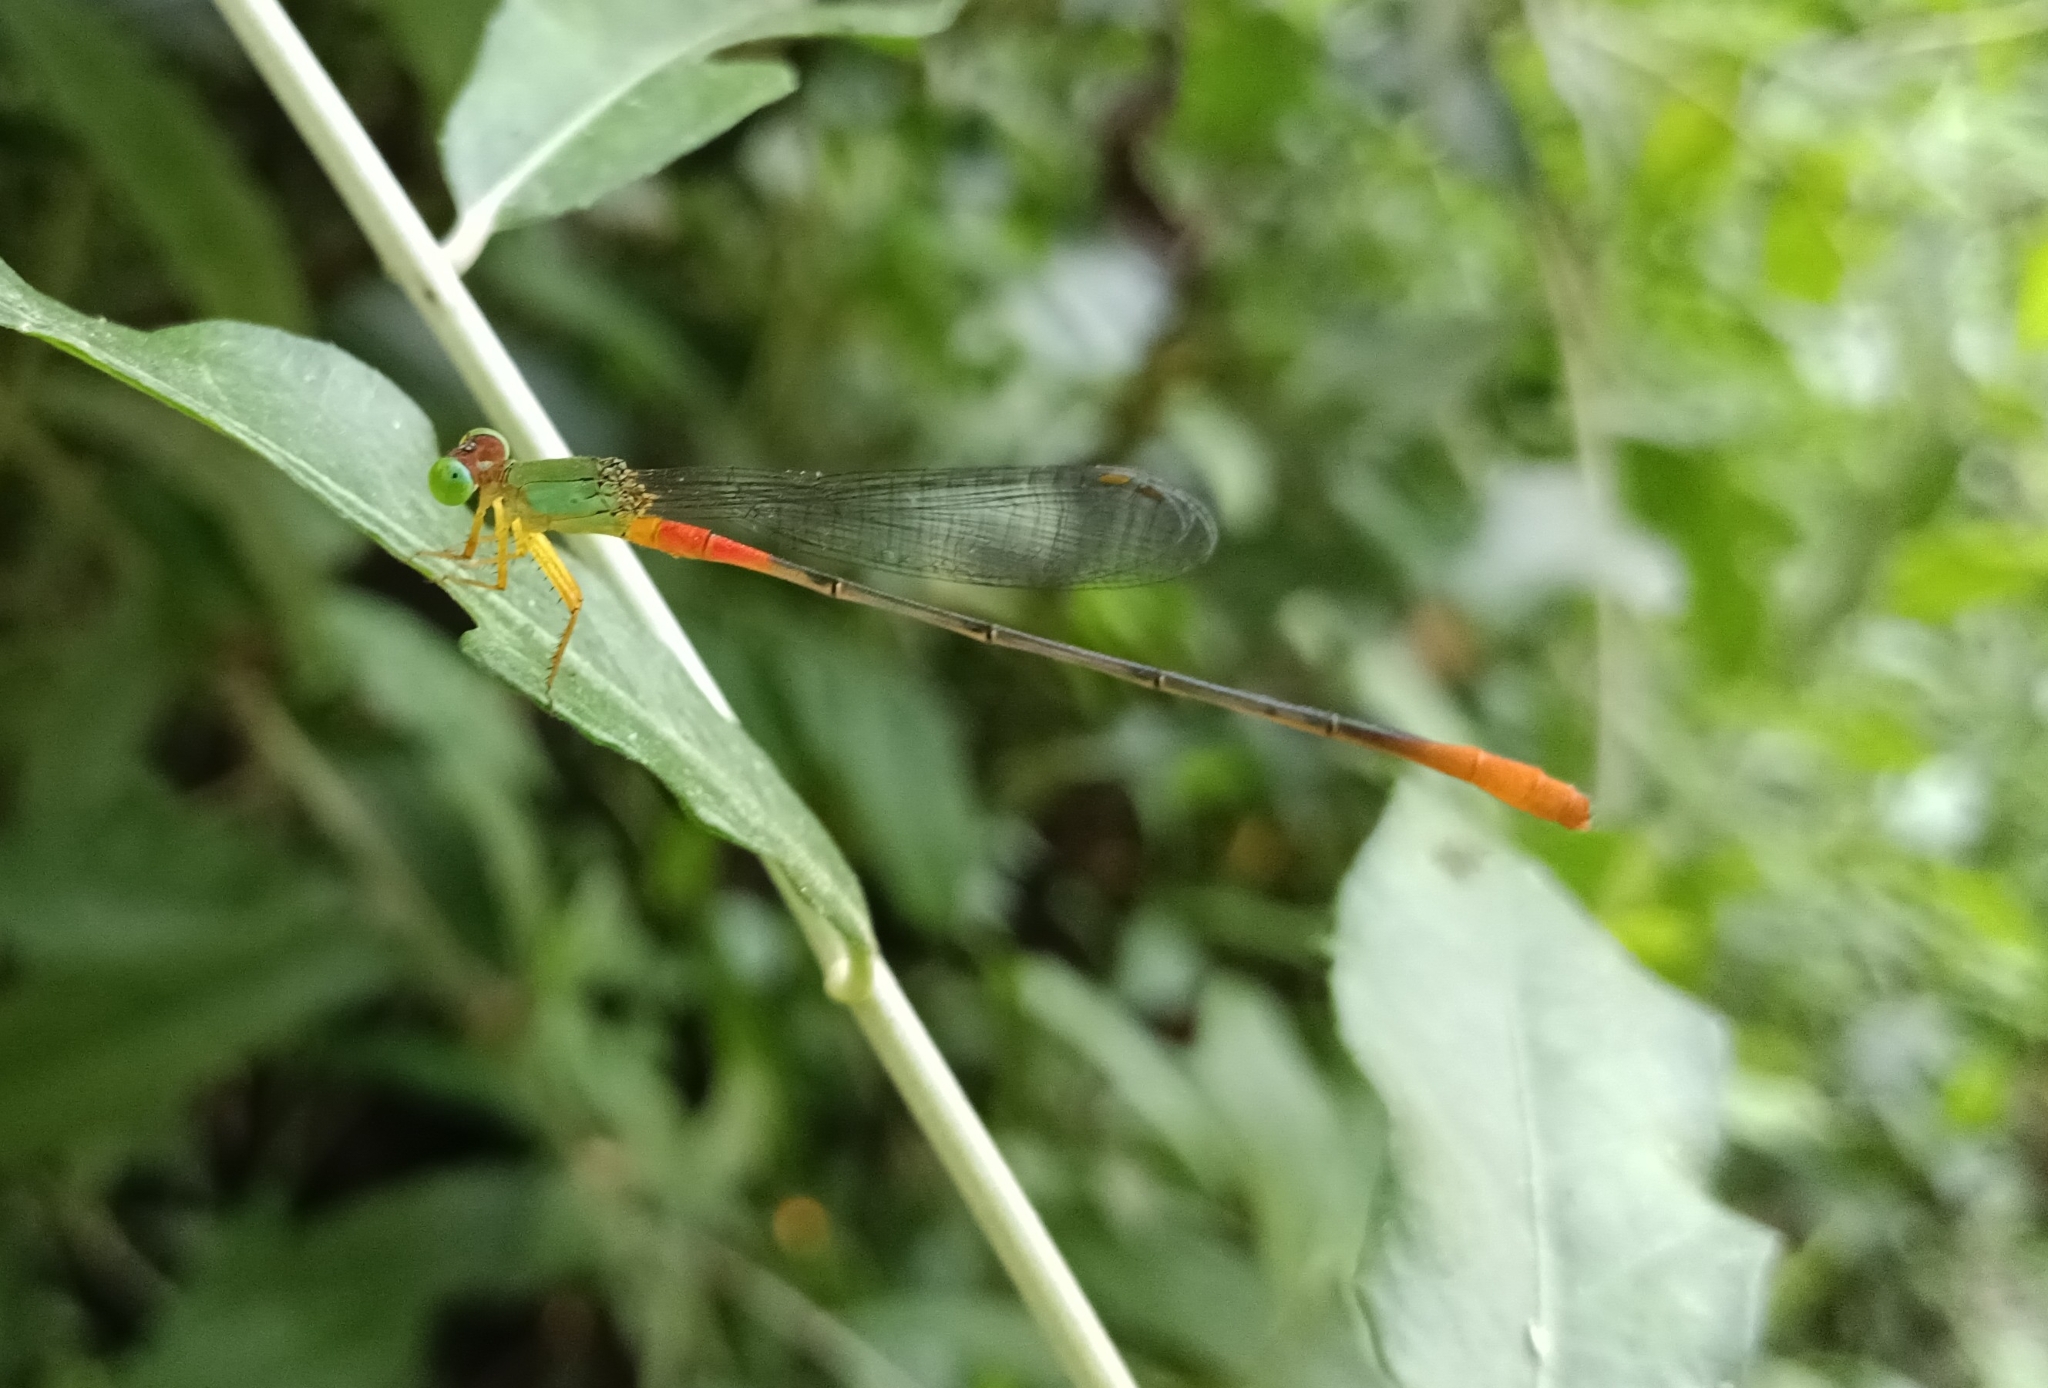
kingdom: Animalia
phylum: Arthropoda
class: Insecta
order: Odonata
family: Coenagrionidae
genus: Ceriagrion
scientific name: Ceriagrion cerinorubellum
